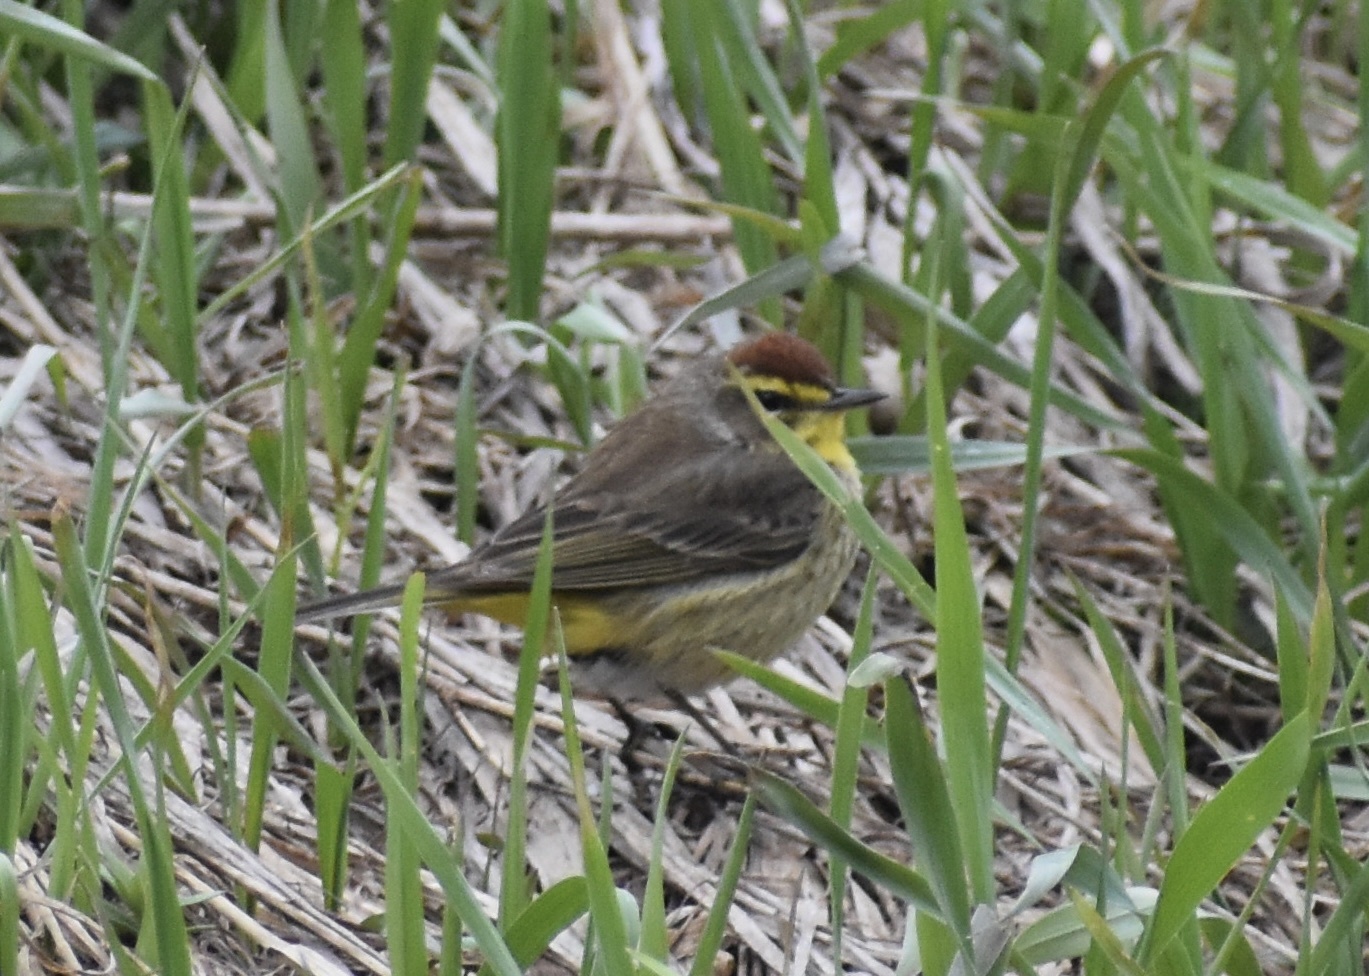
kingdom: Animalia
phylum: Chordata
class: Aves
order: Passeriformes
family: Parulidae
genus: Setophaga
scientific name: Setophaga palmarum
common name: Palm warbler
